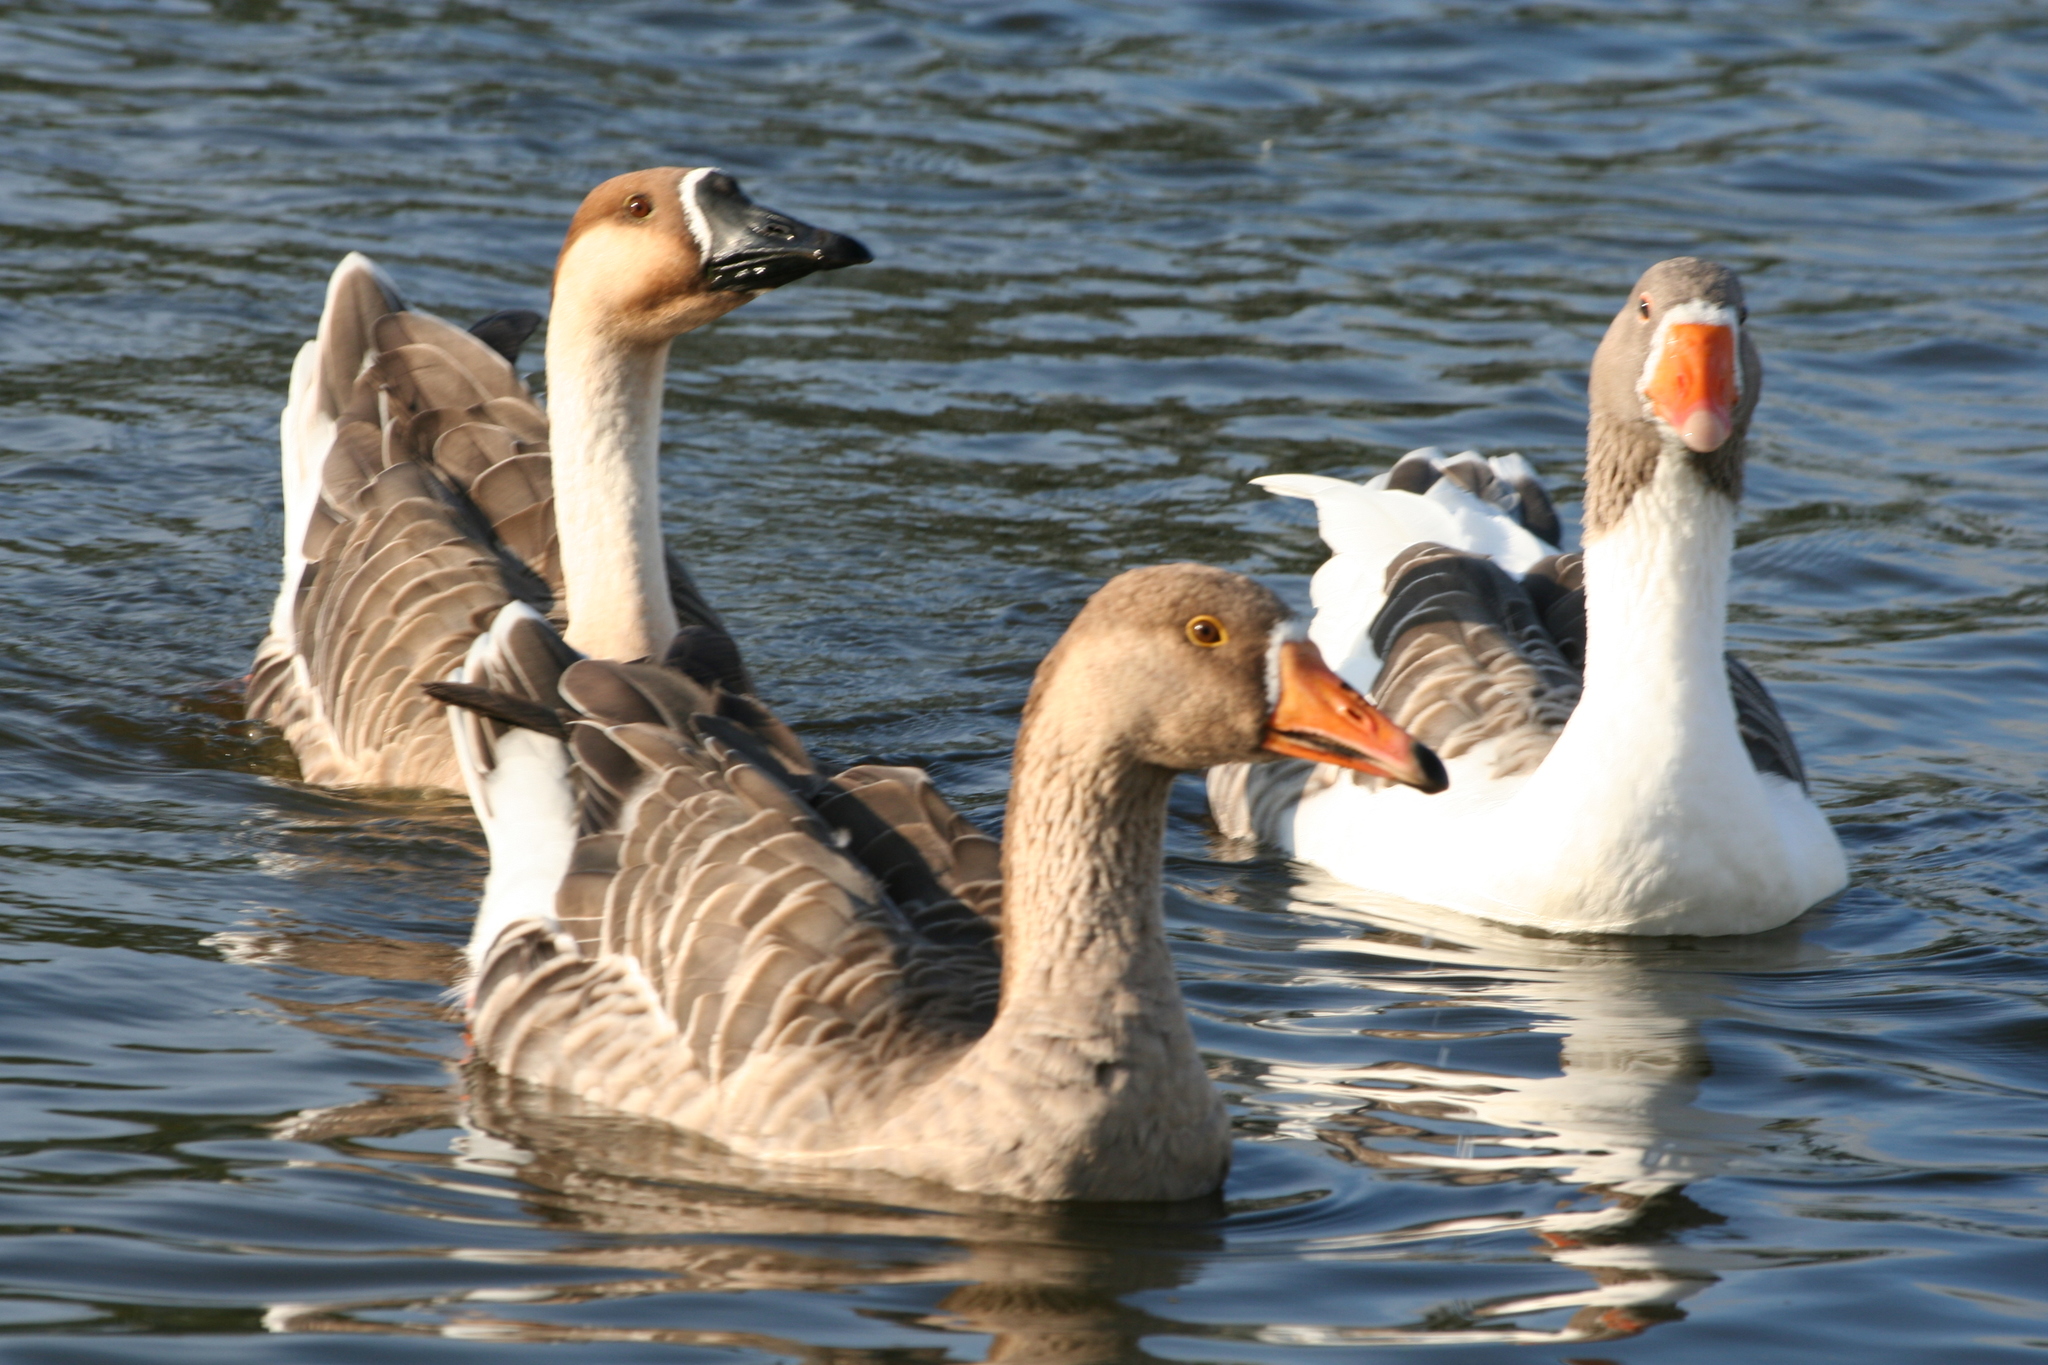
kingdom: Animalia
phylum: Chordata
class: Aves
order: Anseriformes
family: Anatidae
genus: Anser
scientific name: Anser
